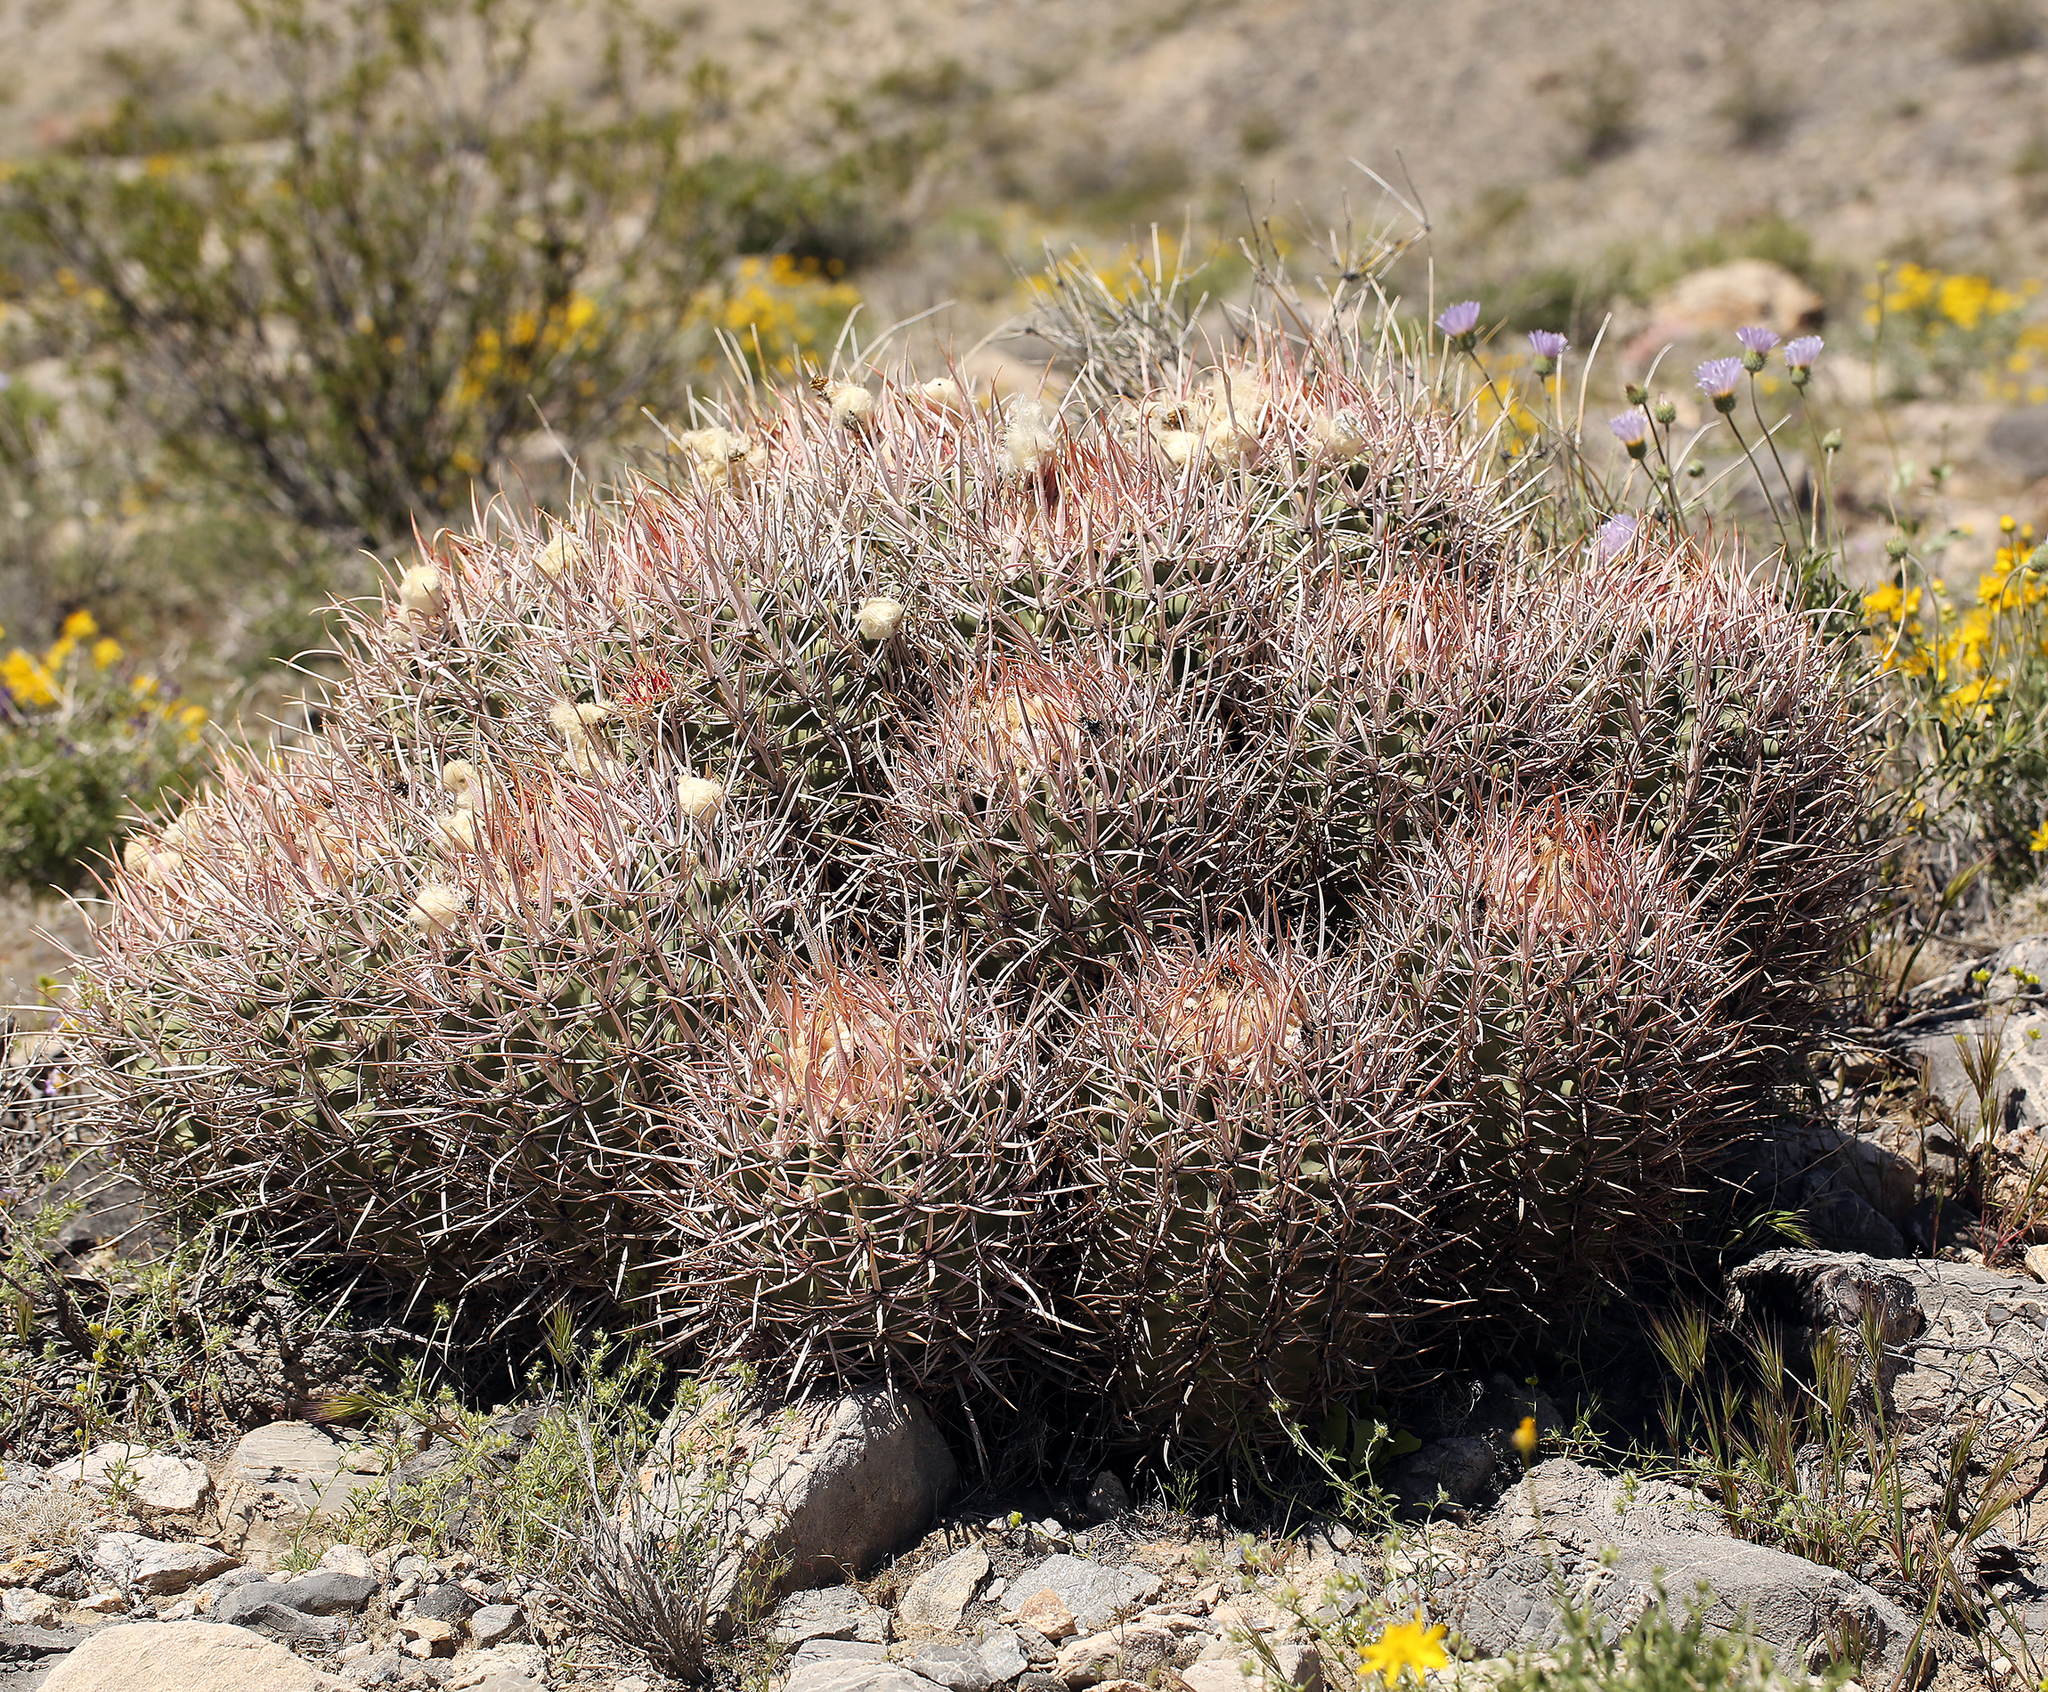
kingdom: Plantae
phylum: Tracheophyta
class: Magnoliopsida
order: Caryophyllales
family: Cactaceae
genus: Echinocactus
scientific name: Echinocactus polycephalus
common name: Cottontop cactus
